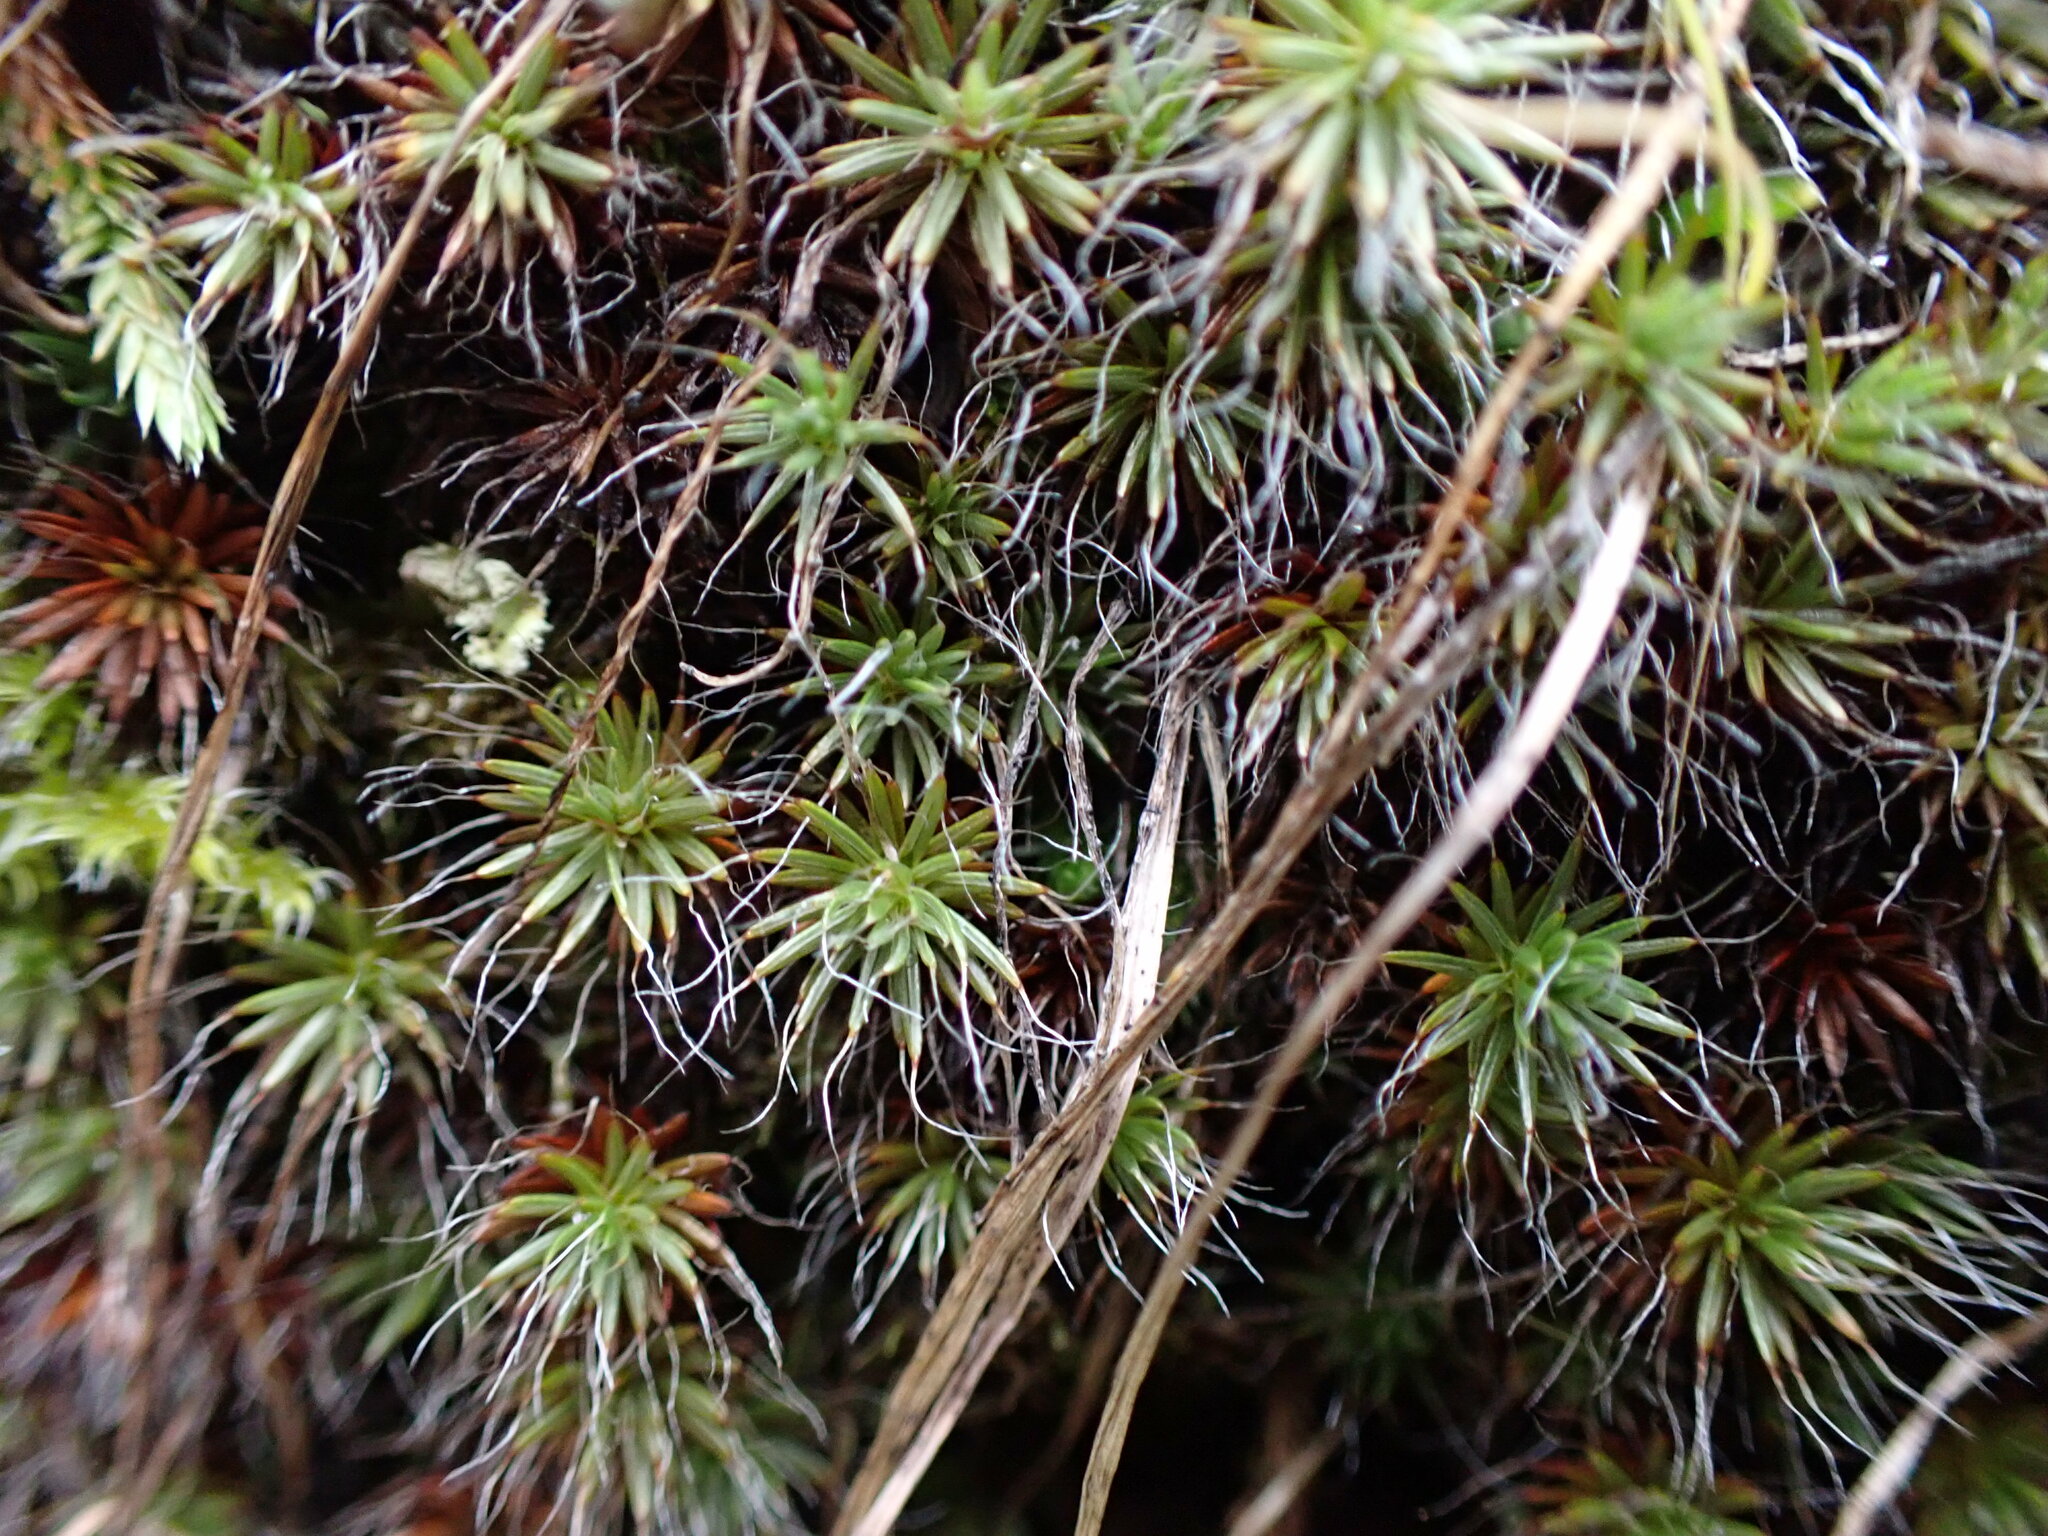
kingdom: Plantae
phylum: Bryophyta
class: Polytrichopsida
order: Polytrichales
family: Polytrichaceae
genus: Polytrichum
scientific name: Polytrichum piliferum
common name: Bristly haircap
